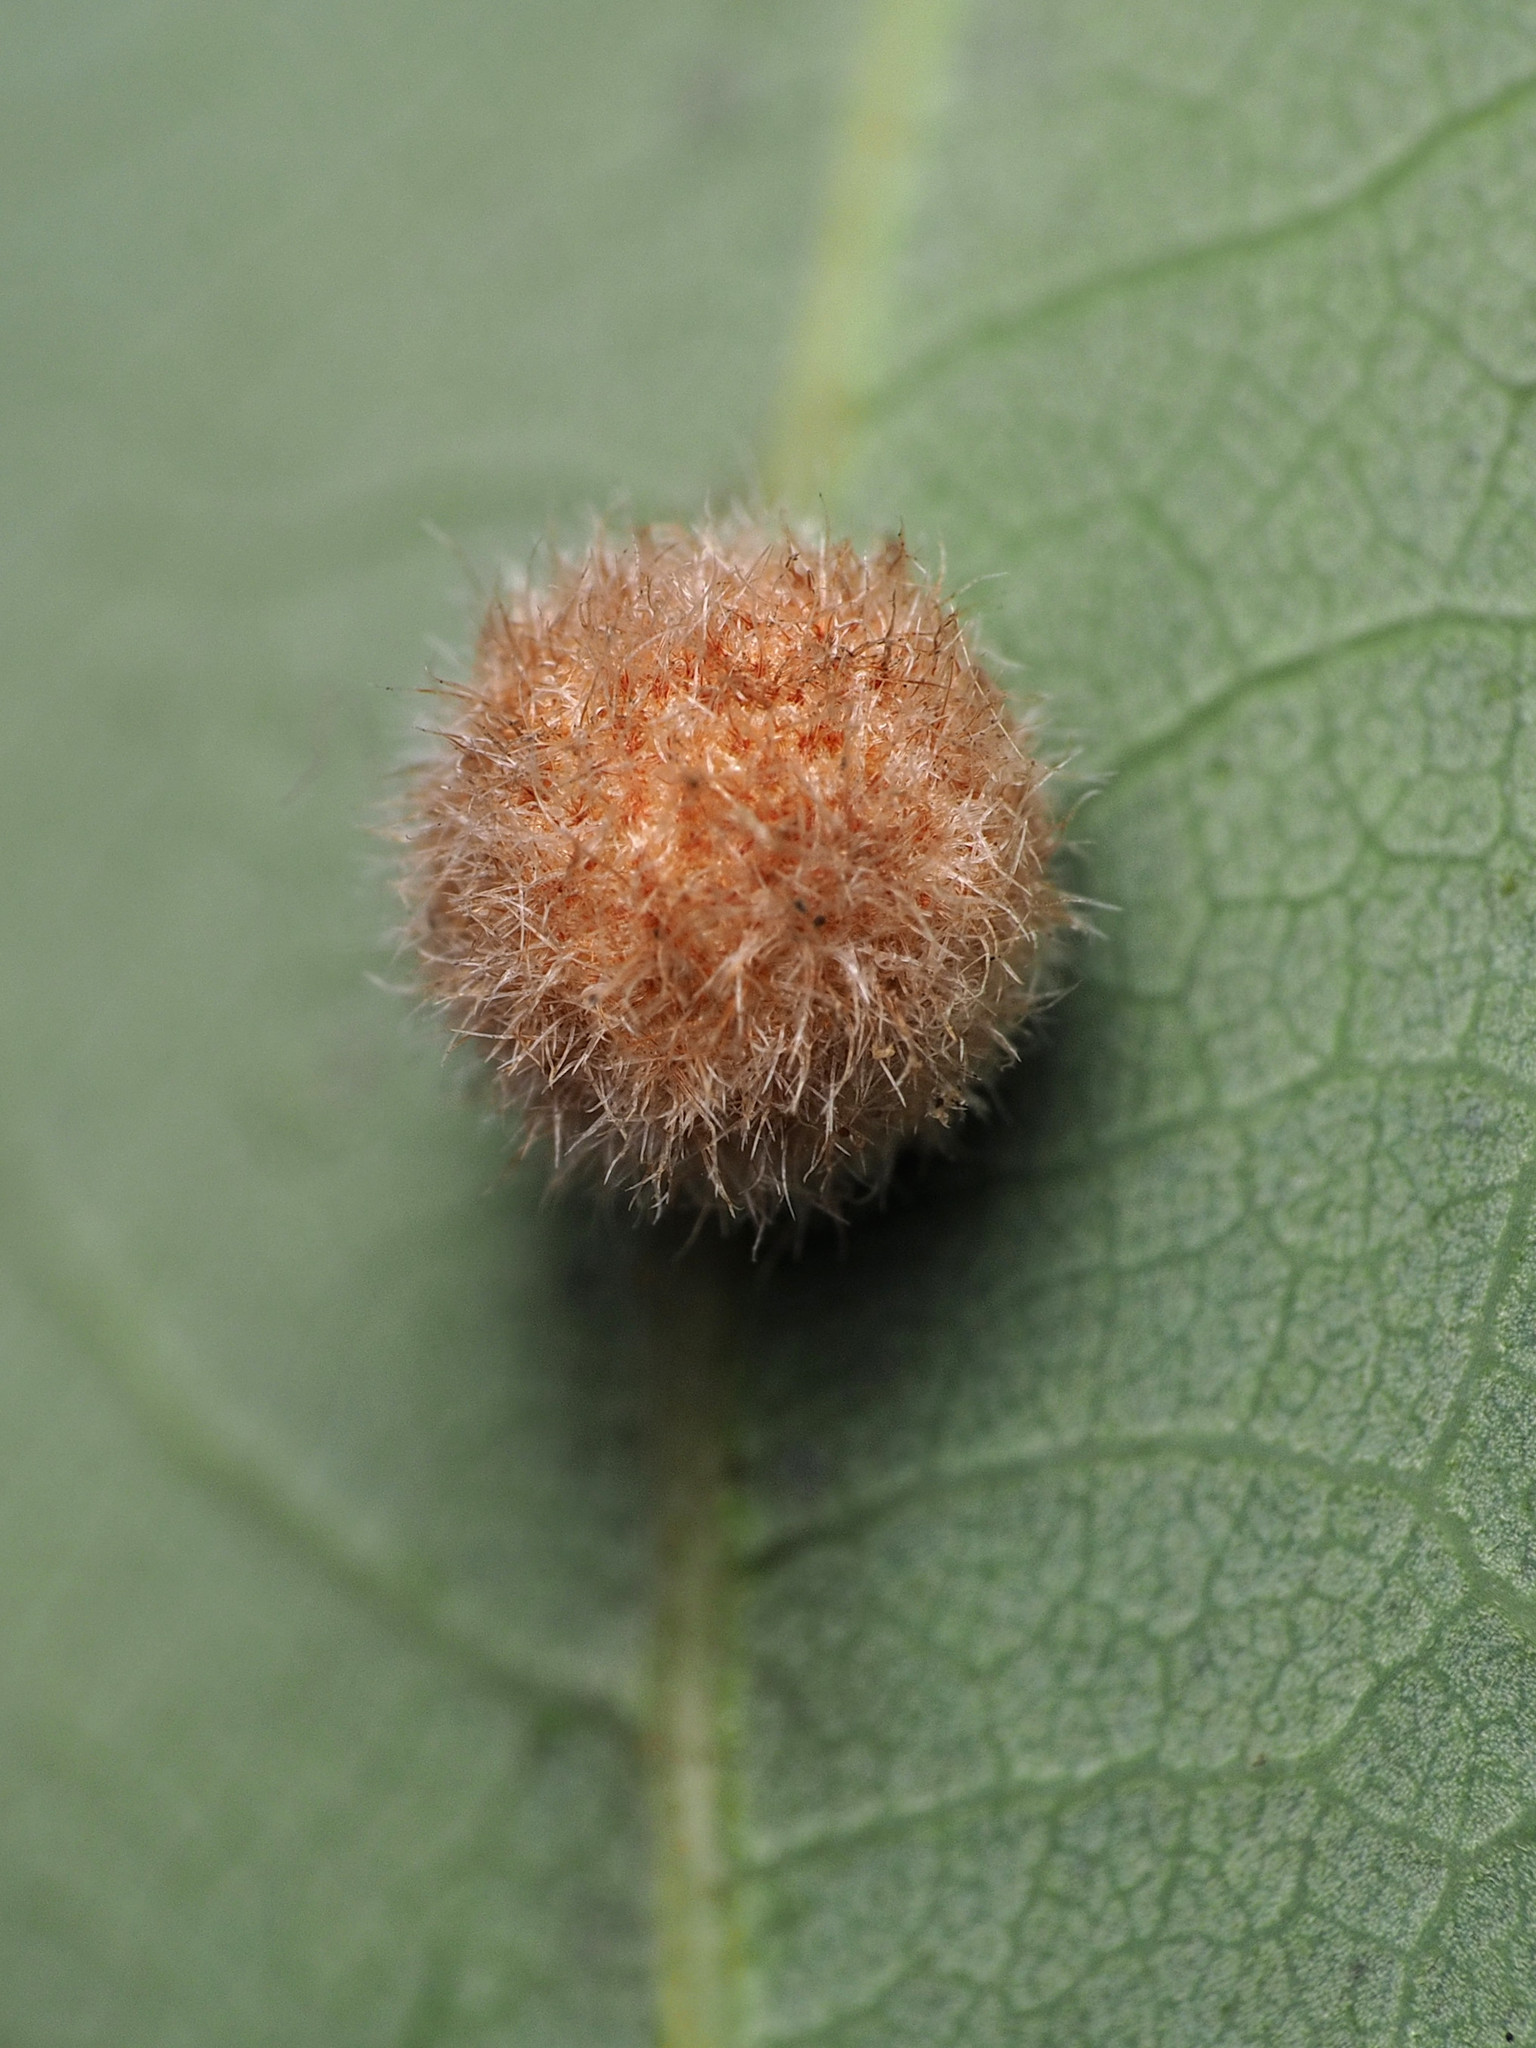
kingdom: Animalia
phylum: Arthropoda
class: Insecta
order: Hymenoptera
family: Cynipidae
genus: Philonix
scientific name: Philonix fulvicollis
